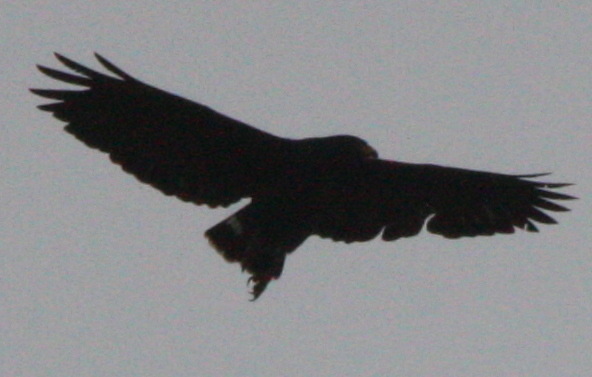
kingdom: Animalia
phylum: Chordata
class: Aves
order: Accipitriformes
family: Accipitridae
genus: Buteogallus
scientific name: Buteogallus anthracinus
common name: Common black hawk
